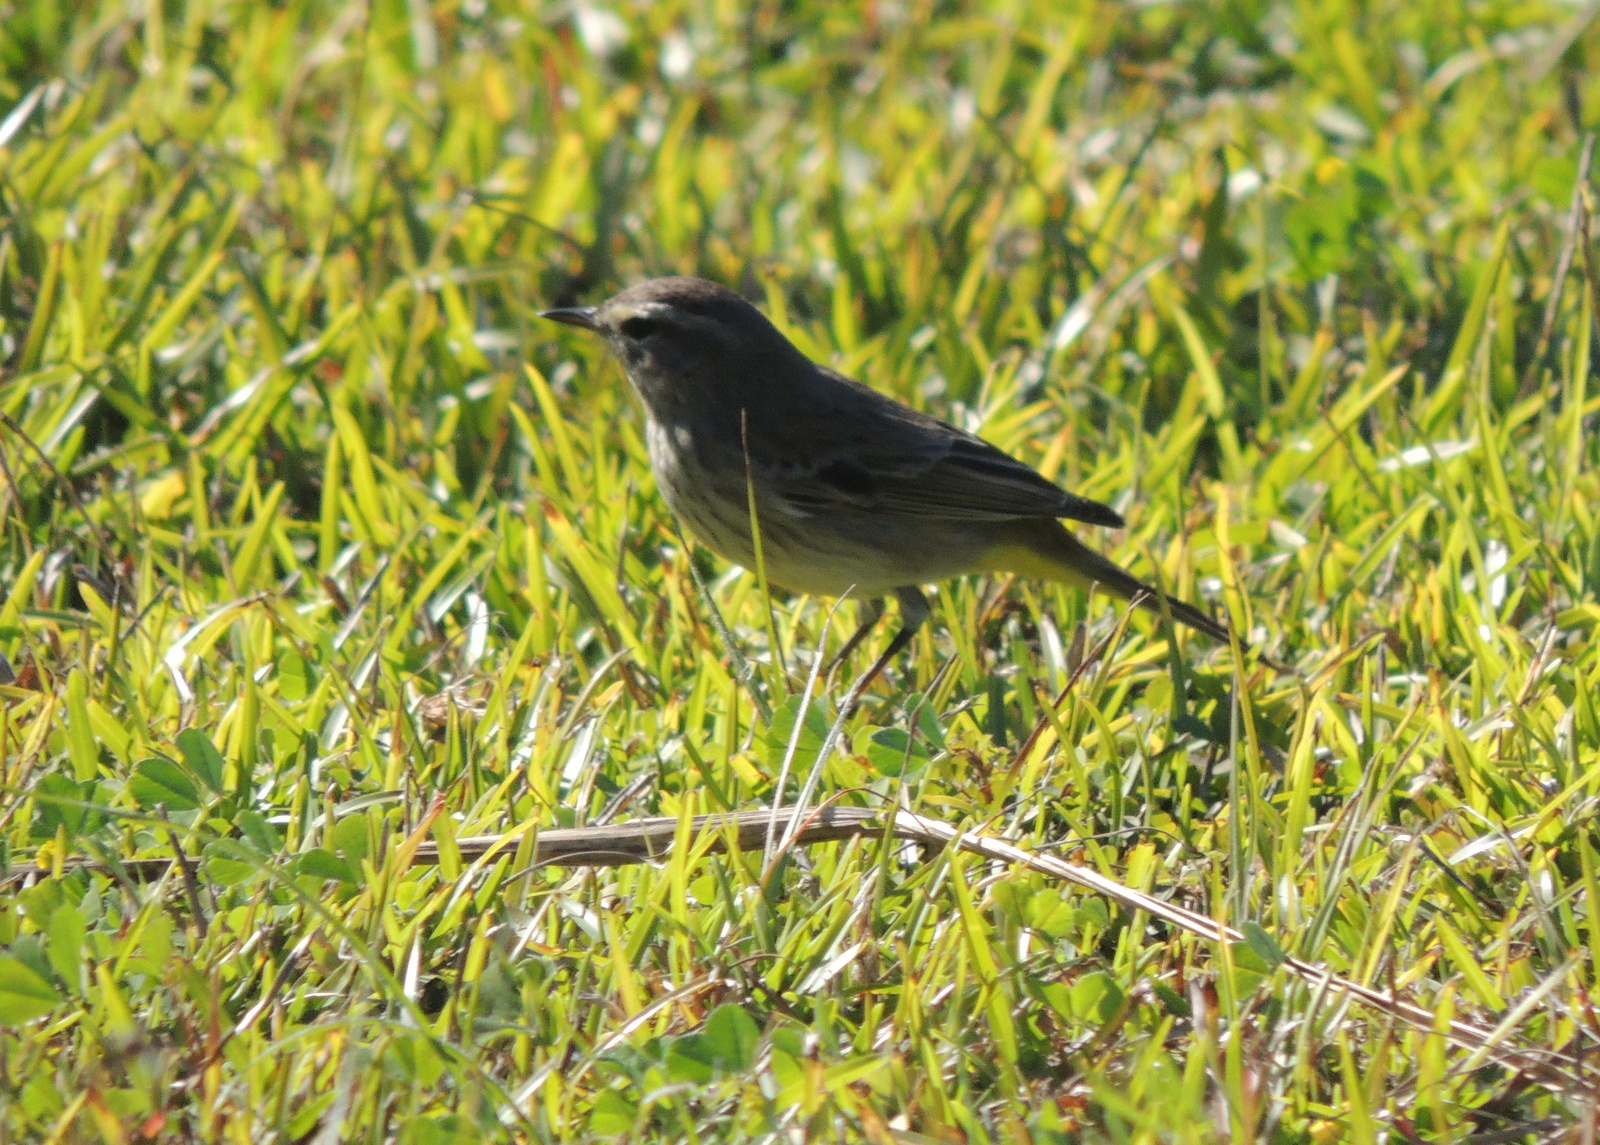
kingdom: Animalia
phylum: Chordata
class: Aves
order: Passeriformes
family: Parulidae
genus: Setophaga
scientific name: Setophaga palmarum
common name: Palm warbler
